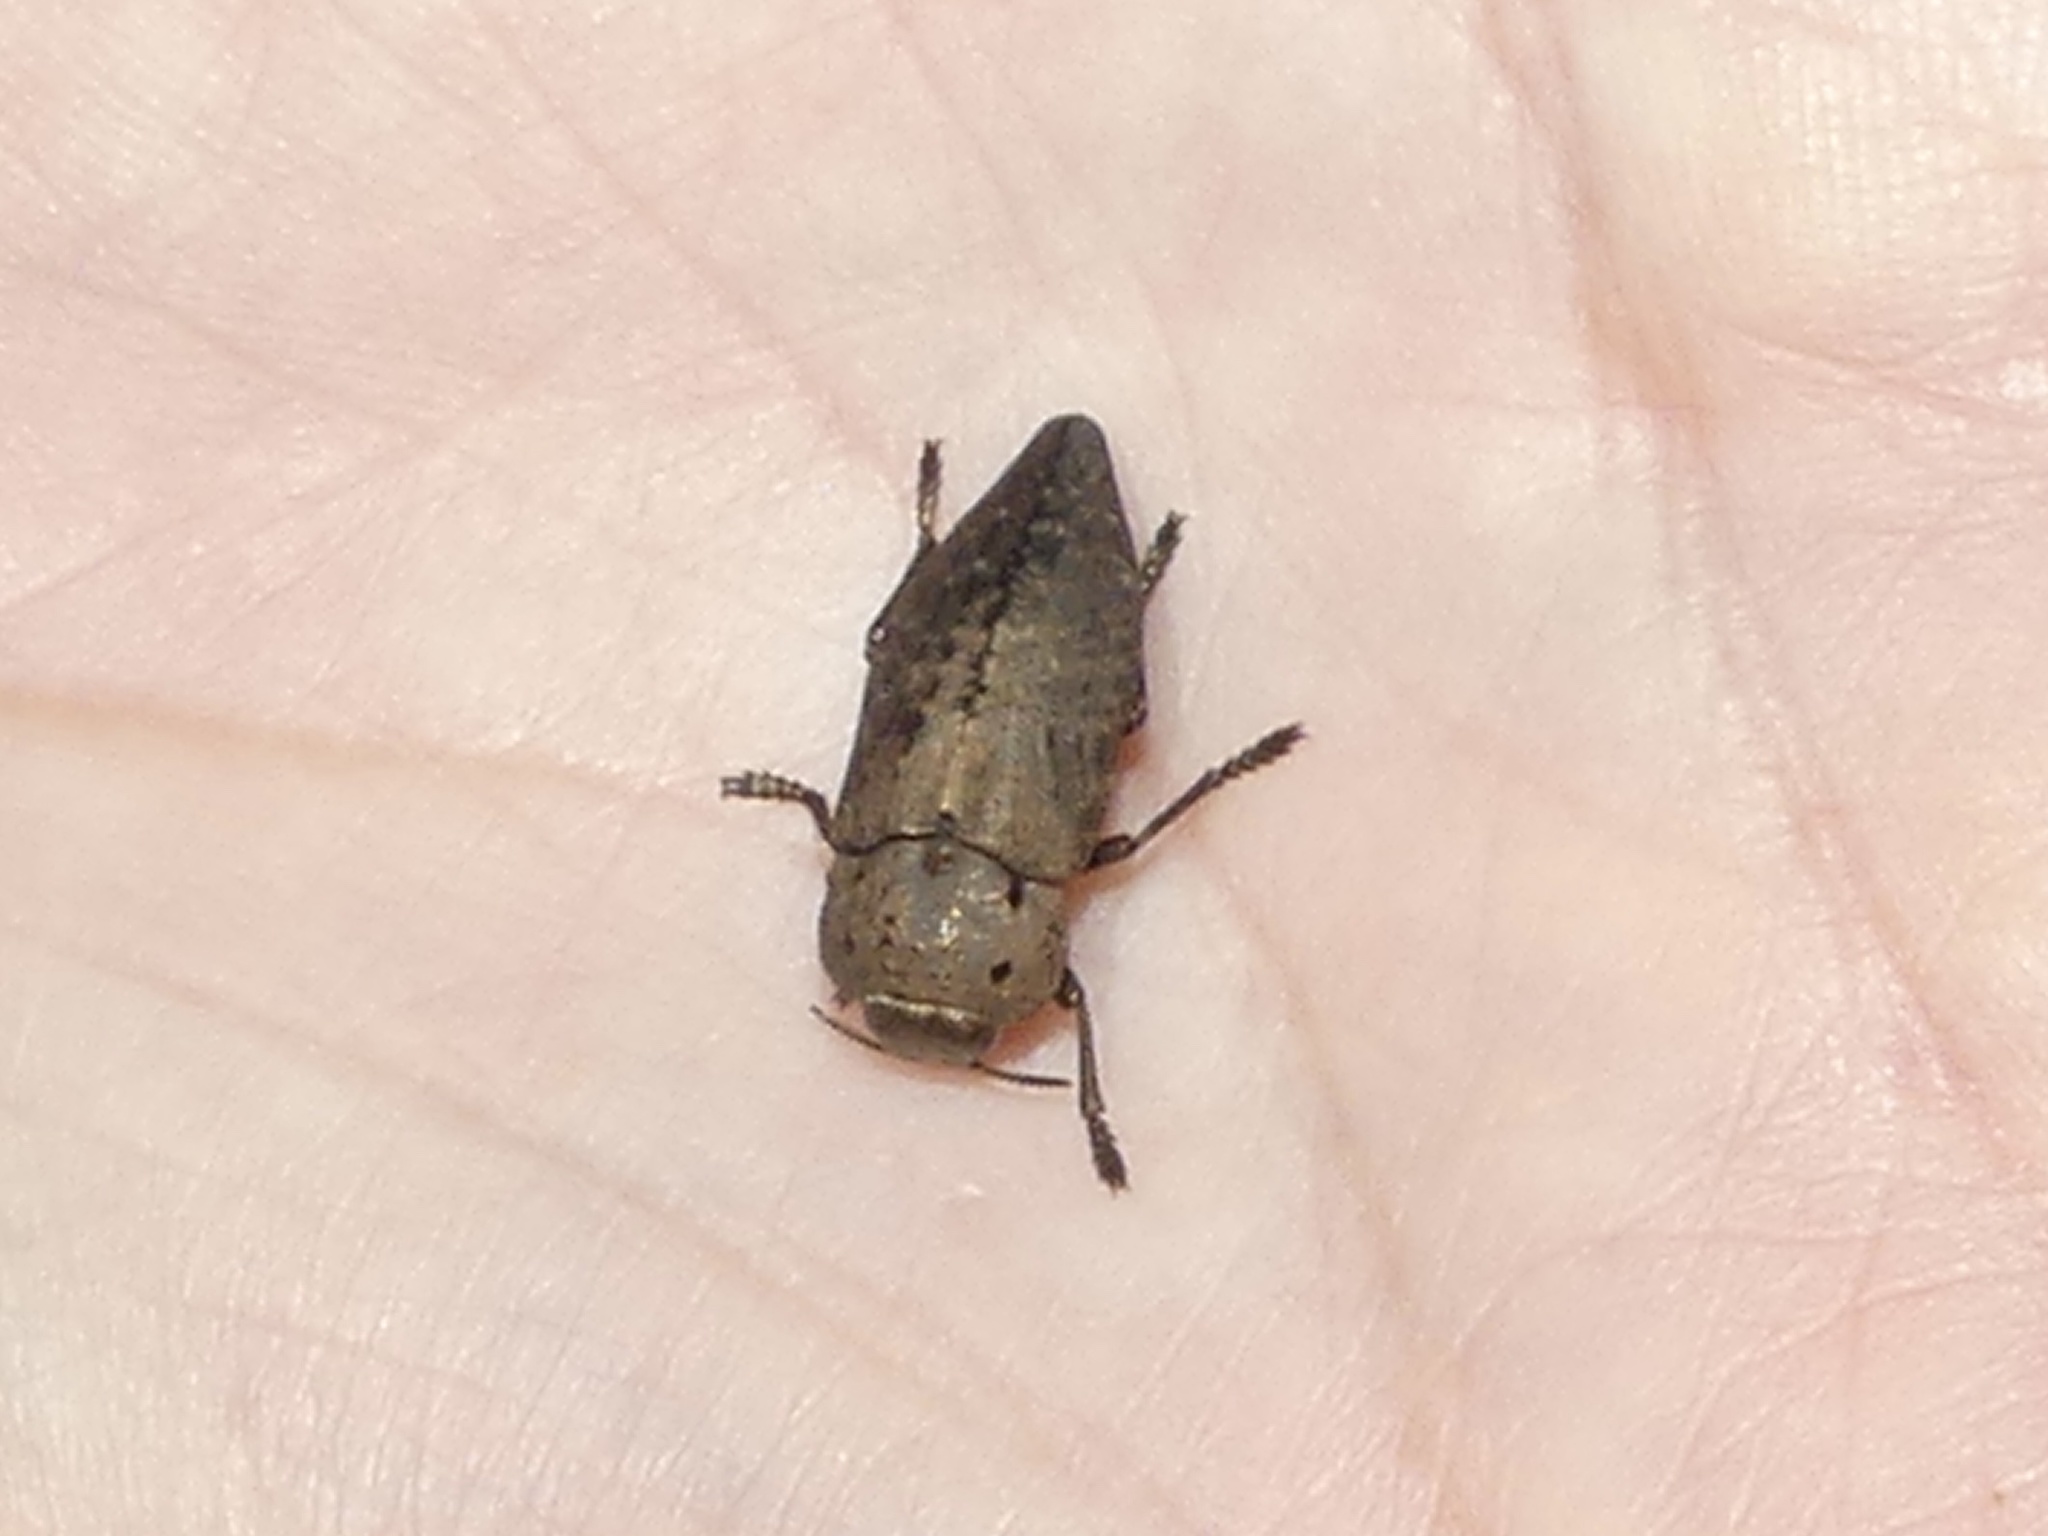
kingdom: Animalia
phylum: Arthropoda
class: Insecta
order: Coleoptera
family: Buprestidae
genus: Capnodis
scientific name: Capnodis tenebricosa
